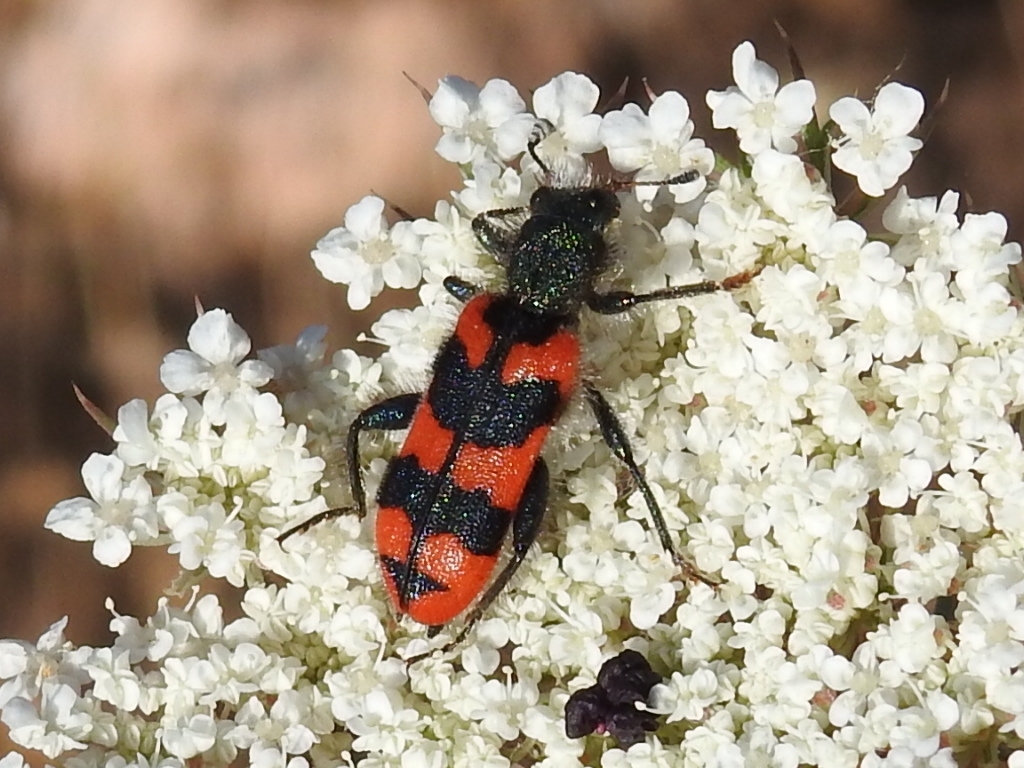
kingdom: Animalia
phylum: Arthropoda
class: Insecta
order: Coleoptera
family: Cleridae
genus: Trichodes
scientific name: Trichodes alvearius
